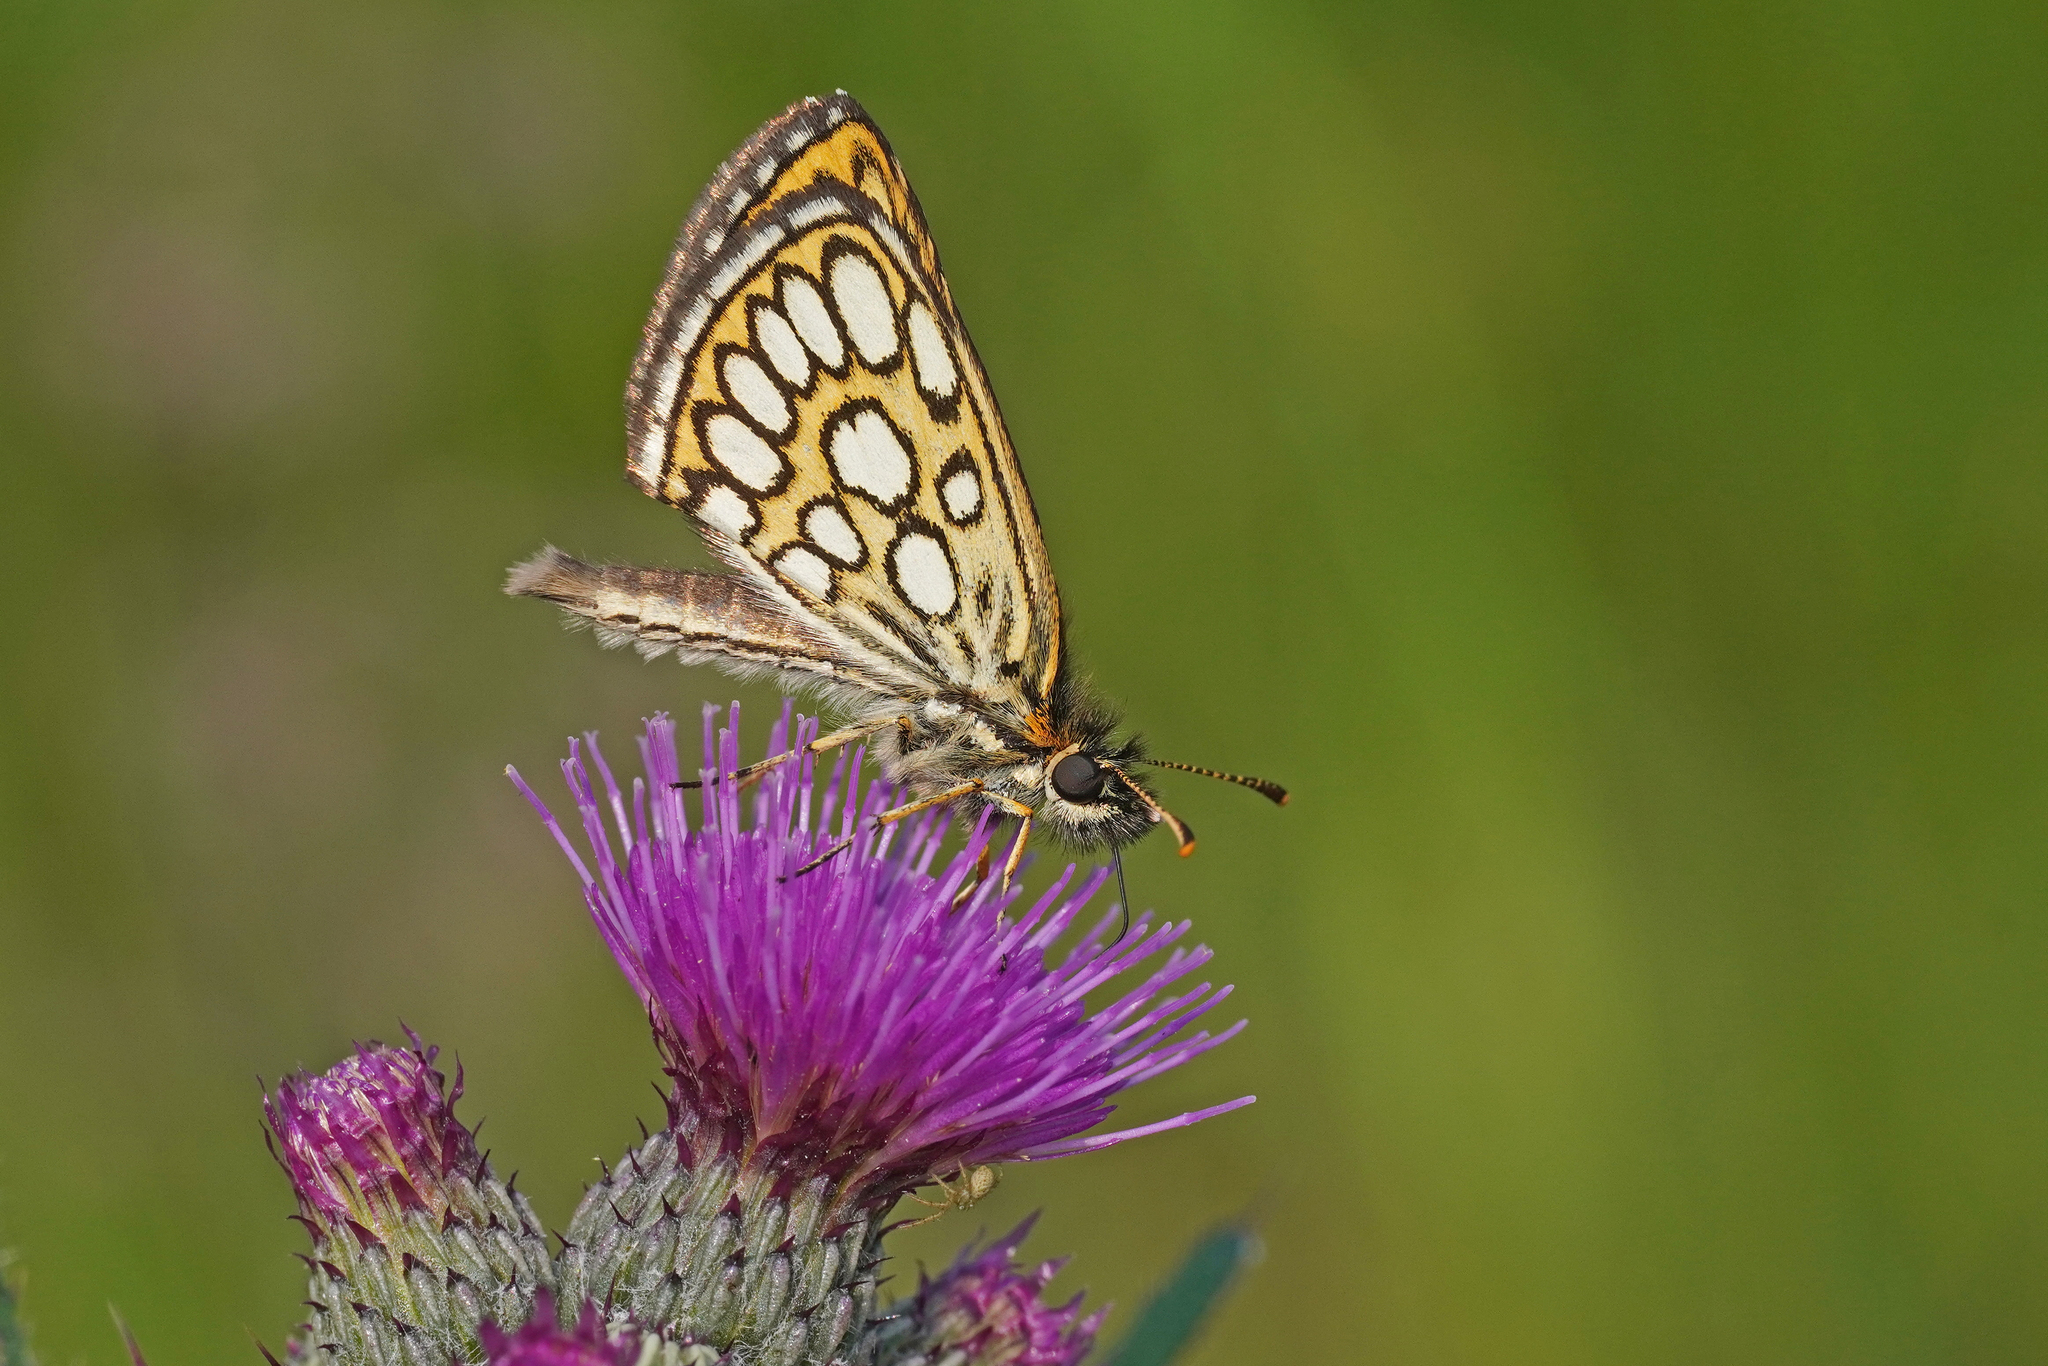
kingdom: Animalia
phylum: Arthropoda
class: Insecta
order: Lepidoptera
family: Hesperiidae
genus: Heteropterus
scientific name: Heteropterus morpheus
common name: Large chequered skipper
